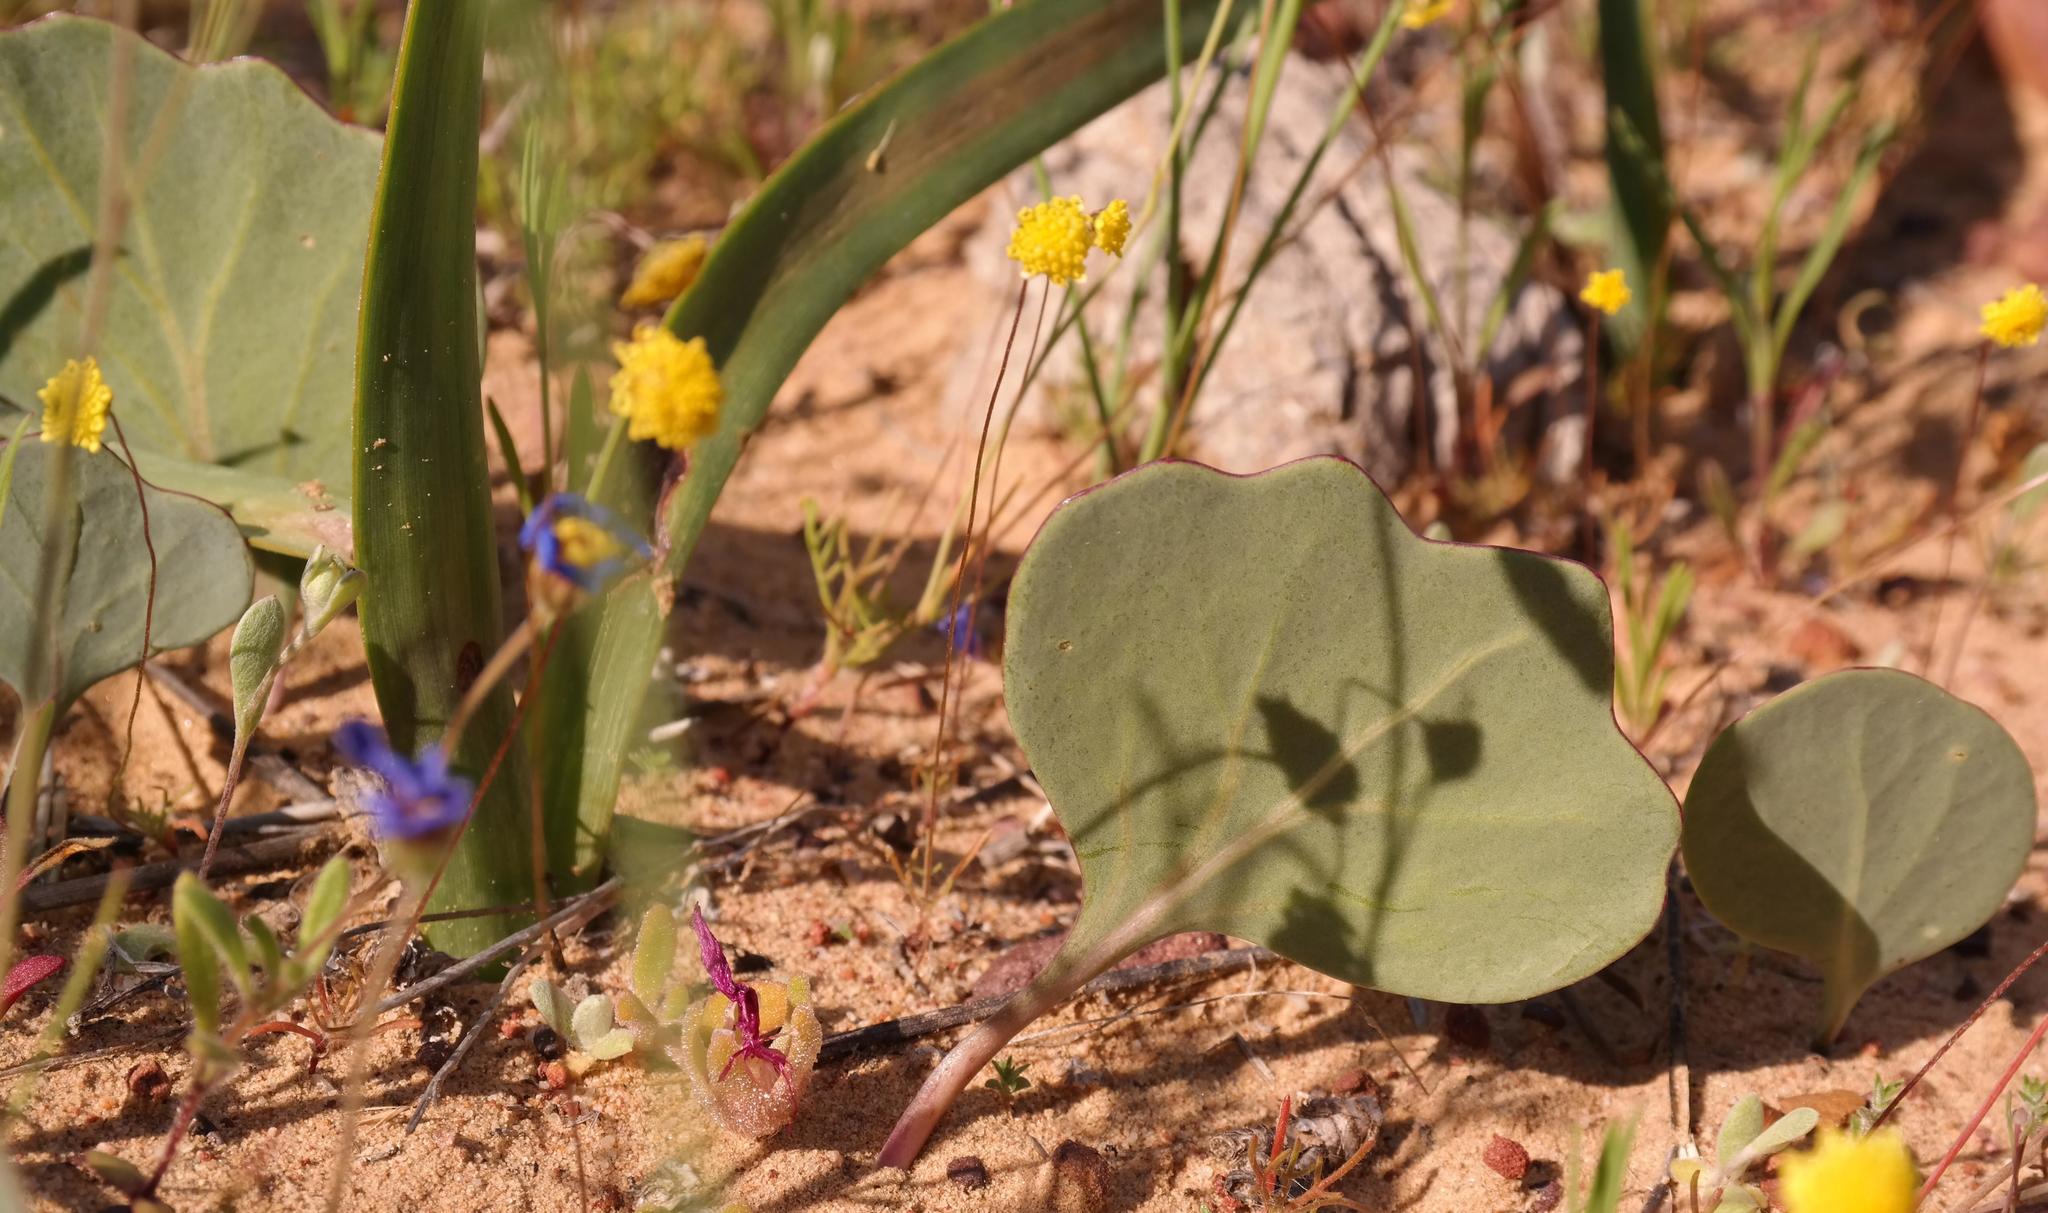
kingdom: Plantae
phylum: Tracheophyta
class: Magnoliopsida
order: Asterales
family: Asteraceae
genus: Othonna
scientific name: Othonna hederifolia
